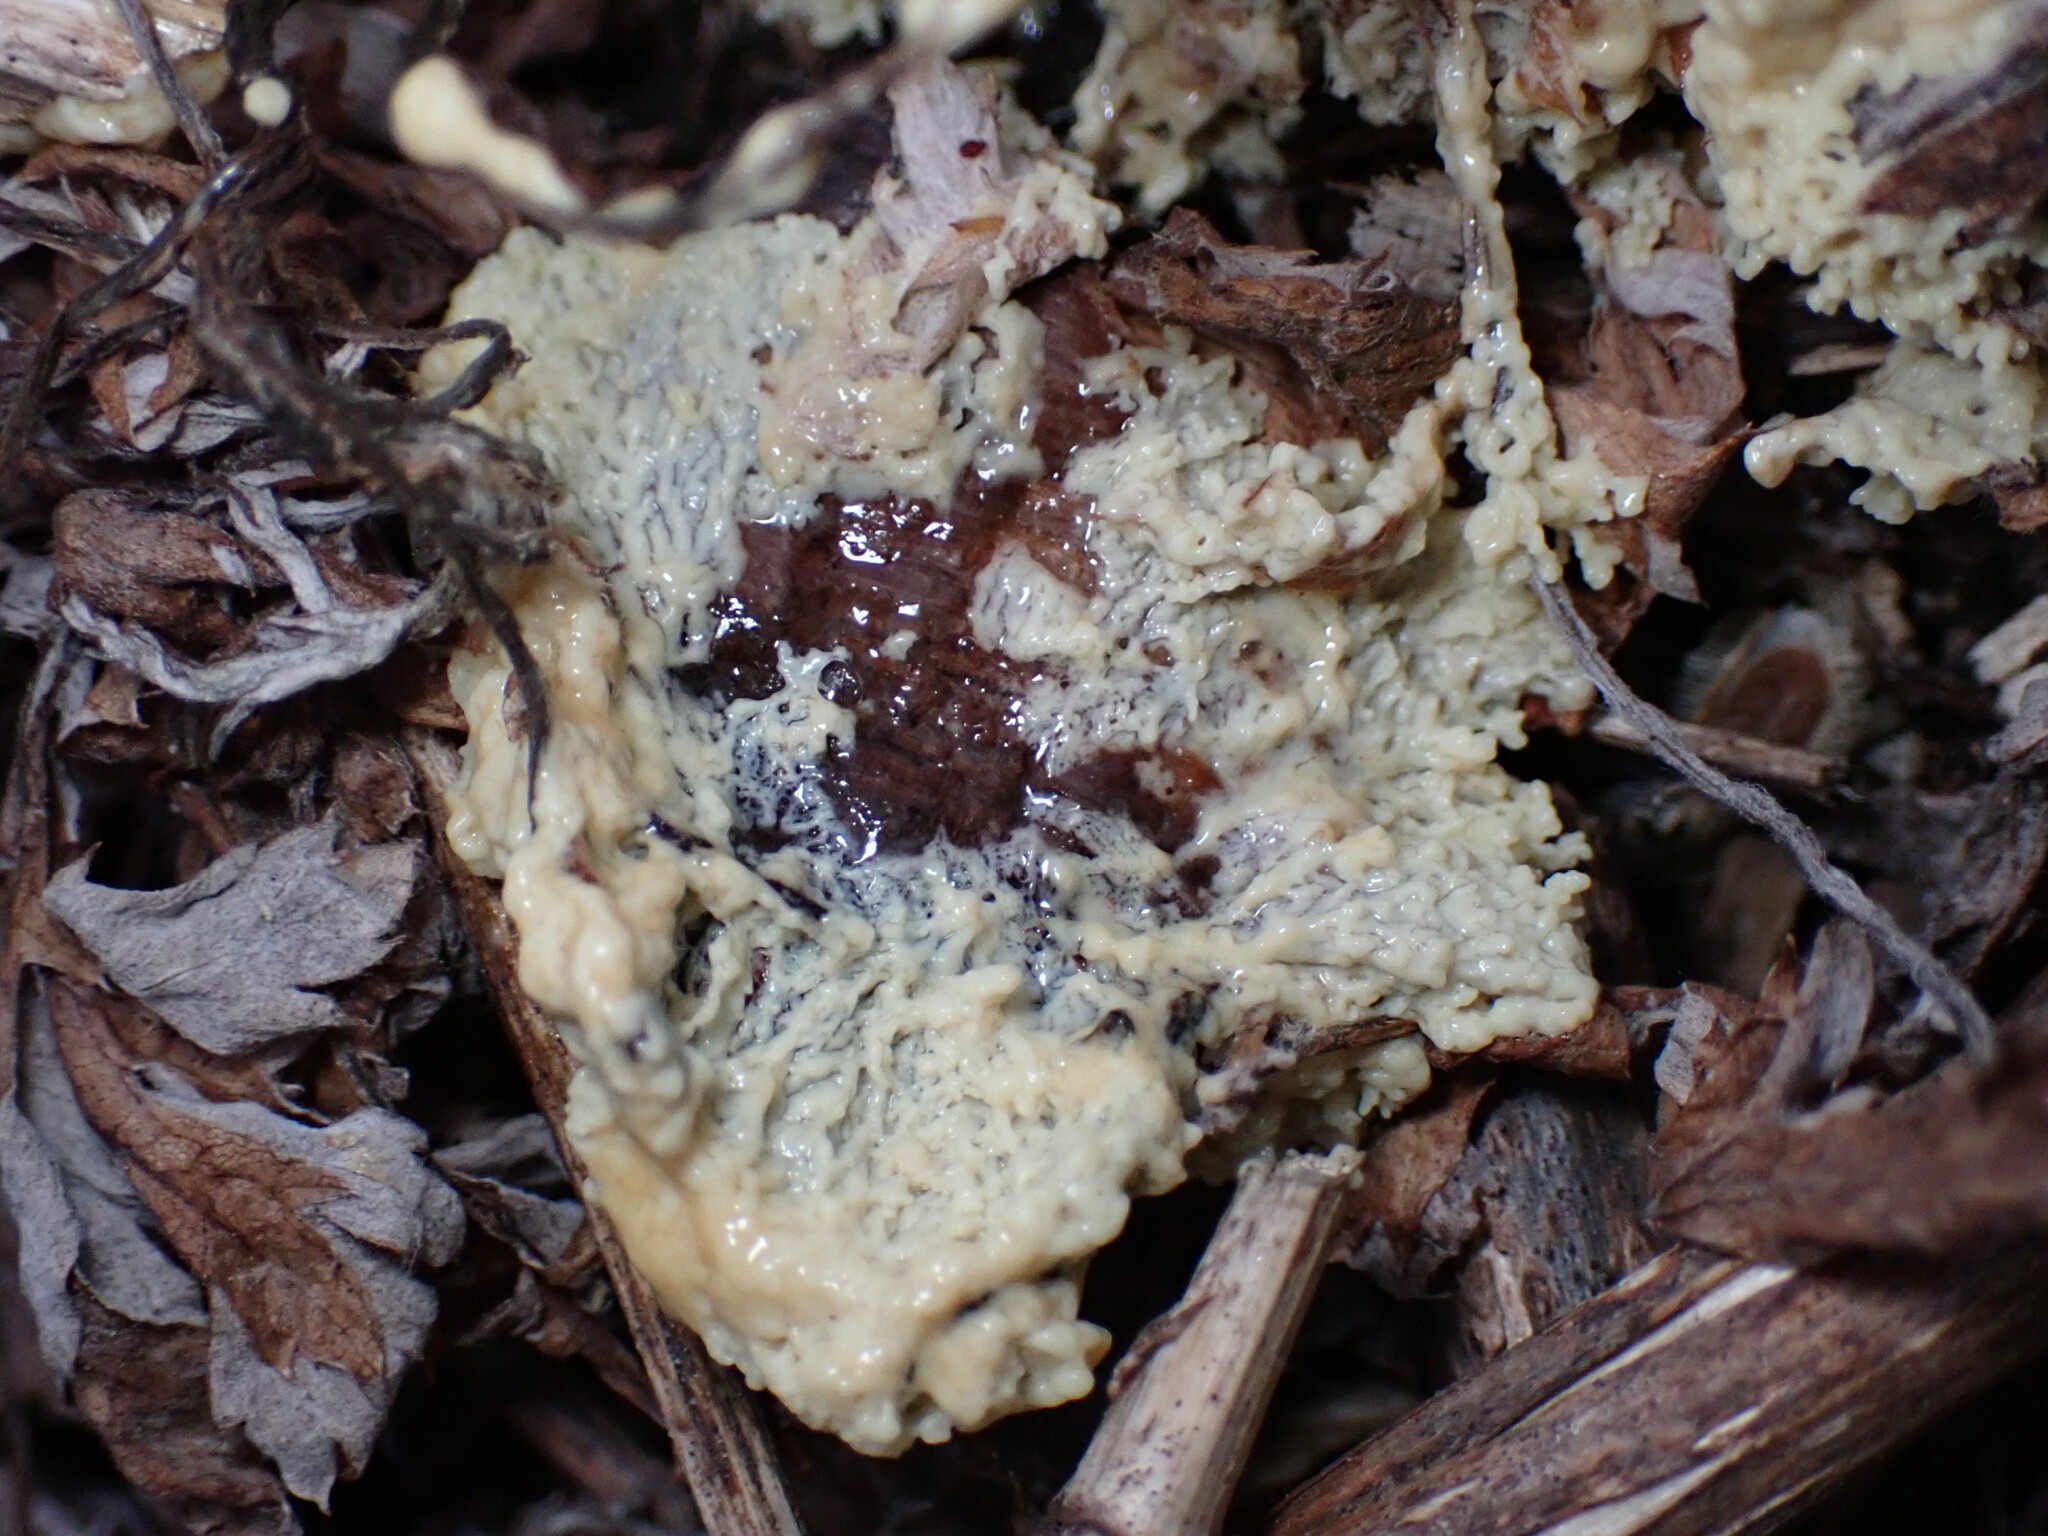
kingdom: Protozoa
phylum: Mycetozoa
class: Myxomycetes
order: Physarales
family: Physaraceae
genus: Didymium
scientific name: Didymium
